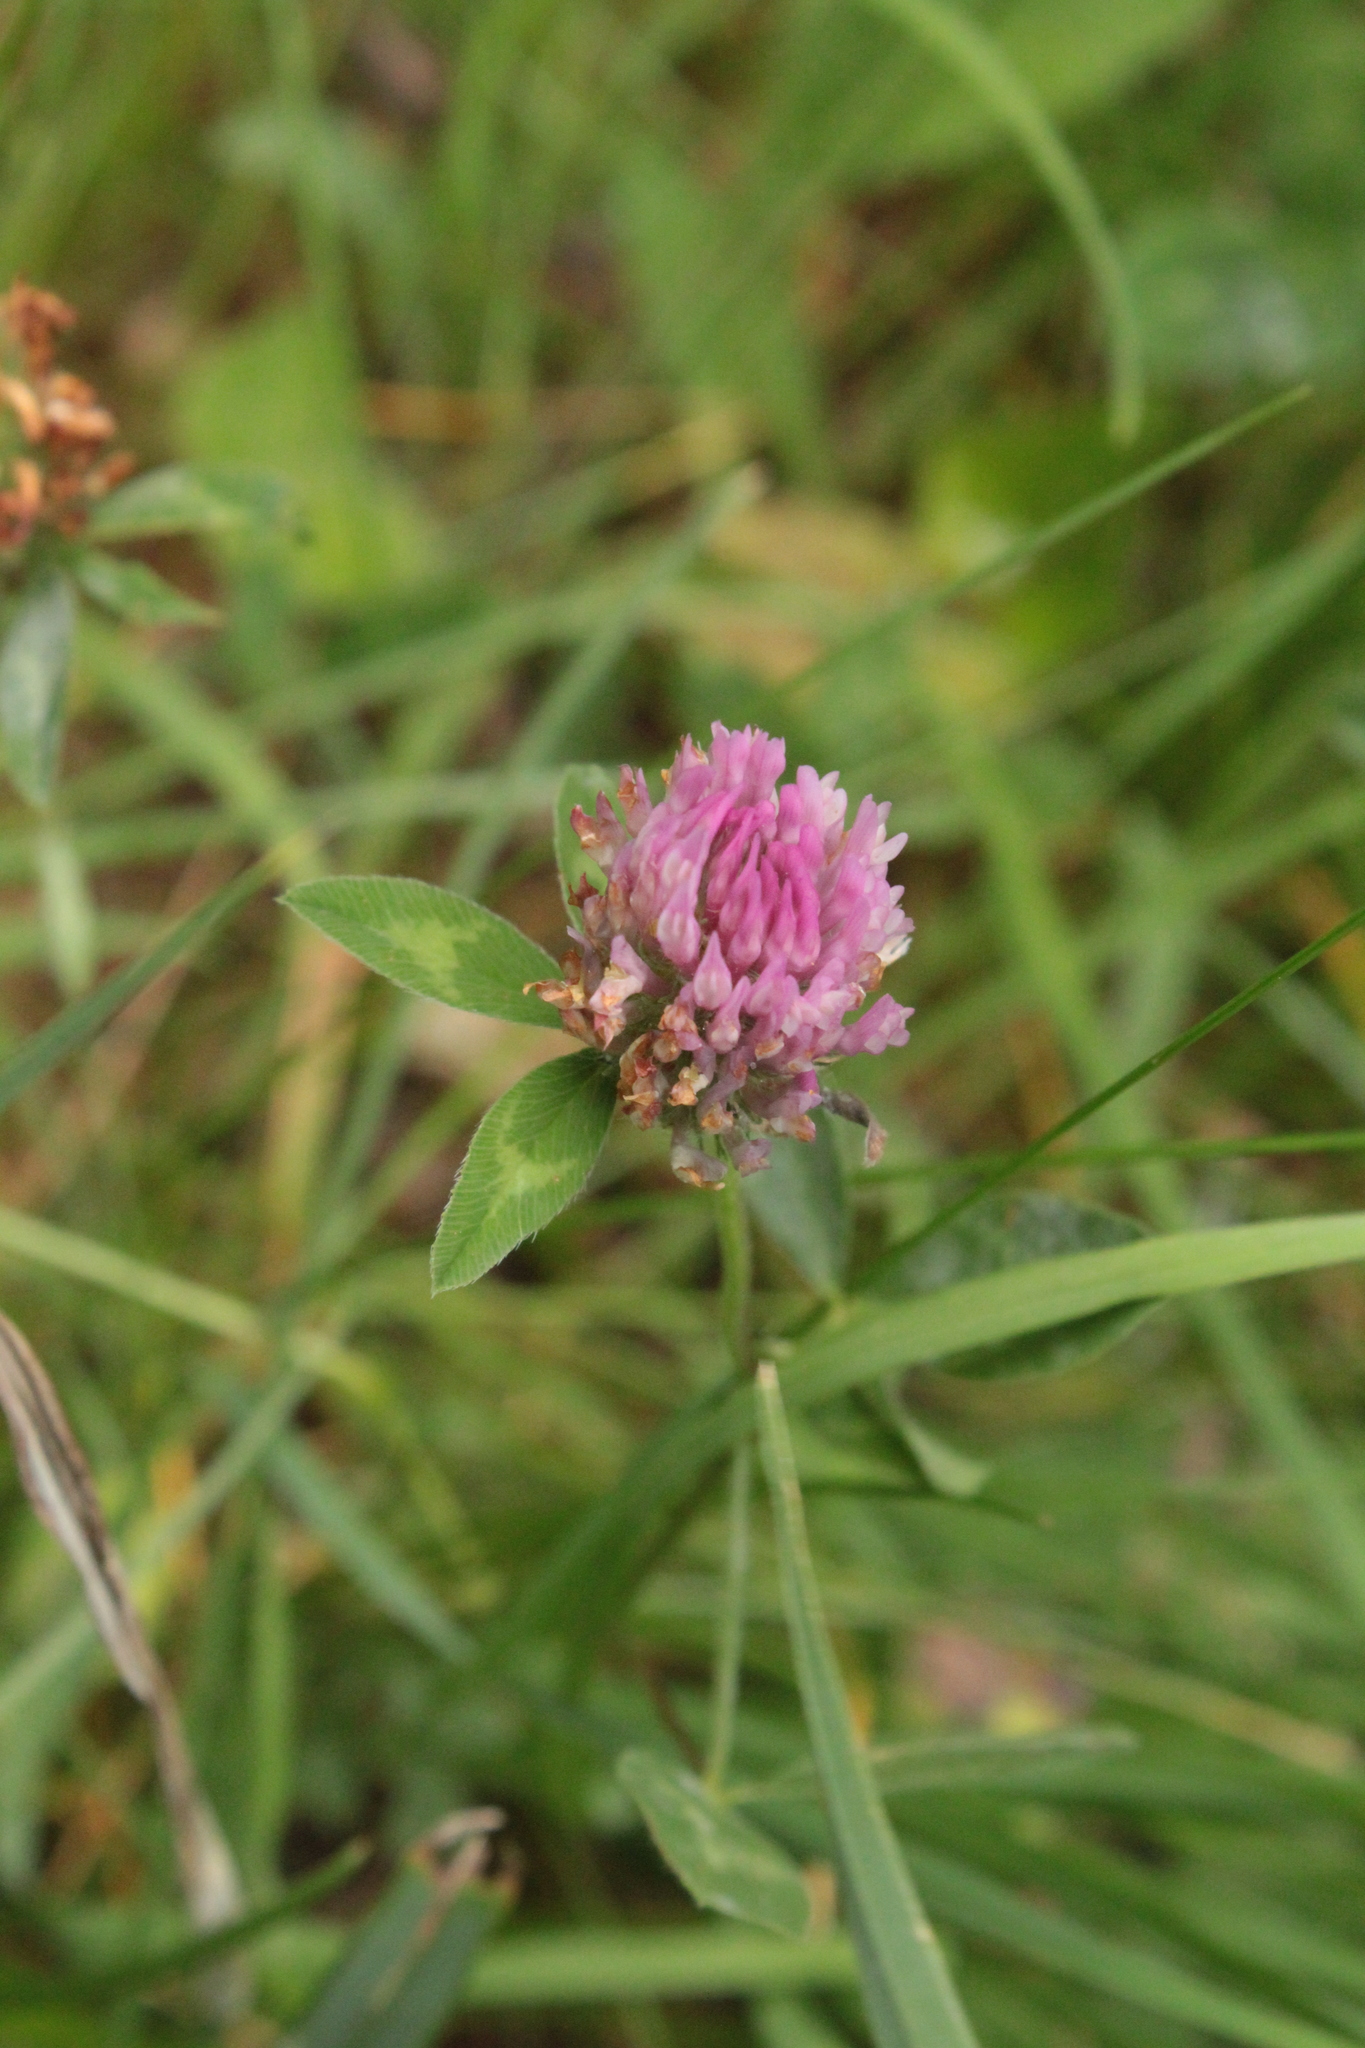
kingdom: Plantae
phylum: Tracheophyta
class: Magnoliopsida
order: Fabales
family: Fabaceae
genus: Trifolium
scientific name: Trifolium pratense
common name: Red clover
